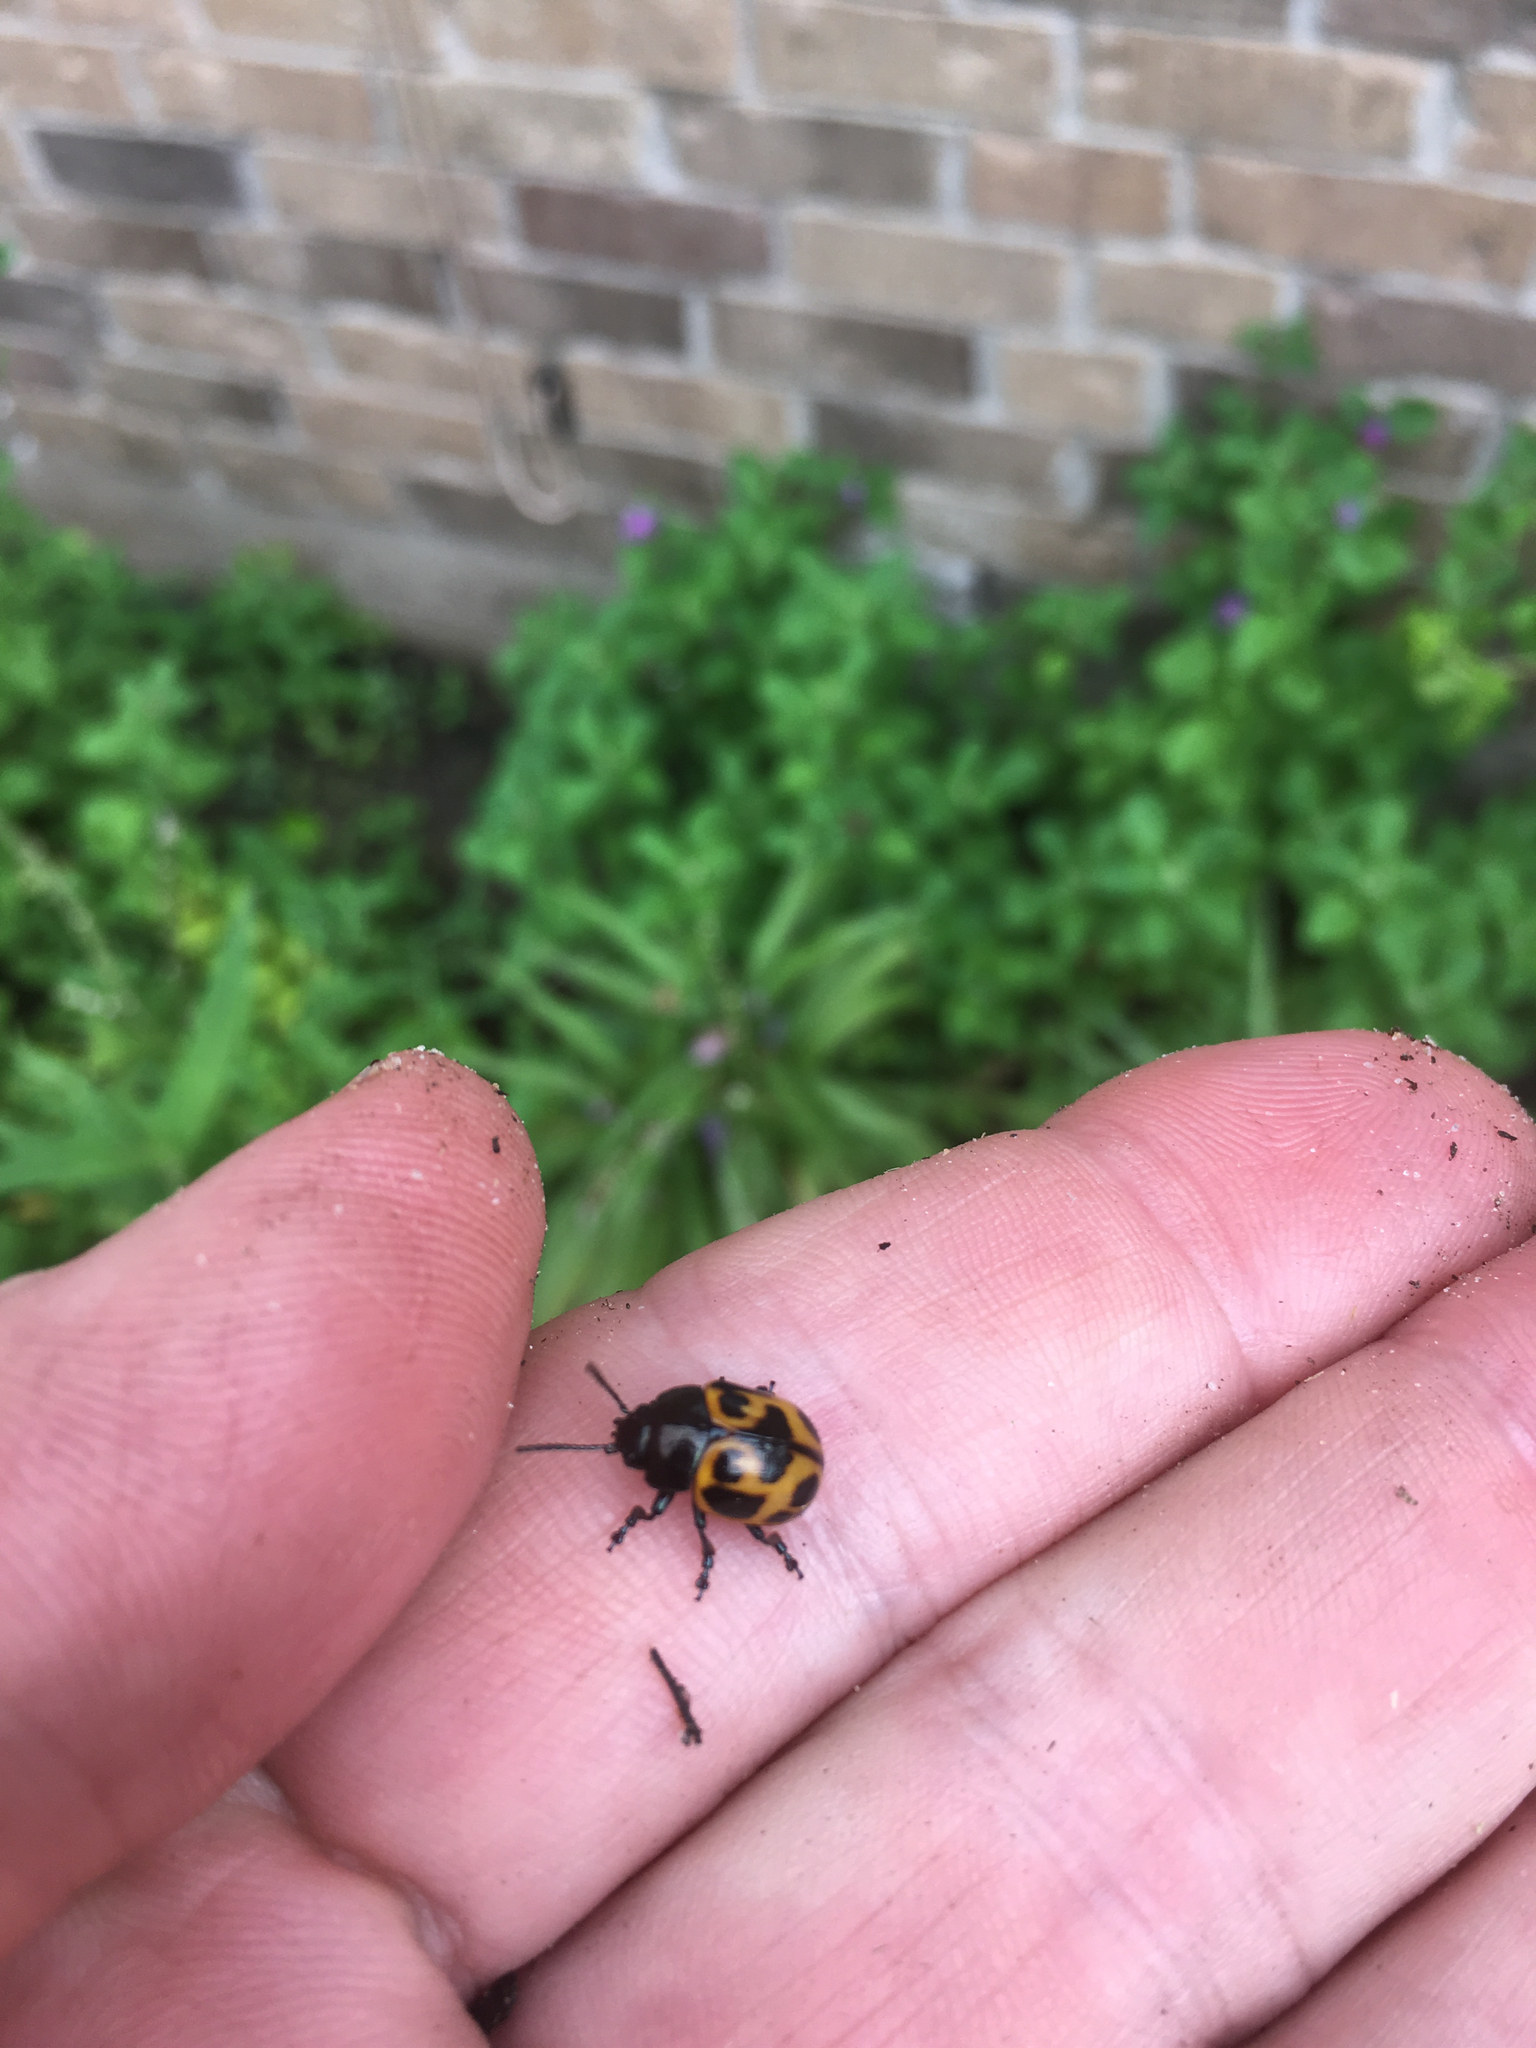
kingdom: Animalia
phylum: Arthropoda
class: Insecta
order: Coleoptera
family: Chrysomelidae
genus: Labidomera
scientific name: Labidomera clivicollis
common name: Swamp milkweed leaf beetle
